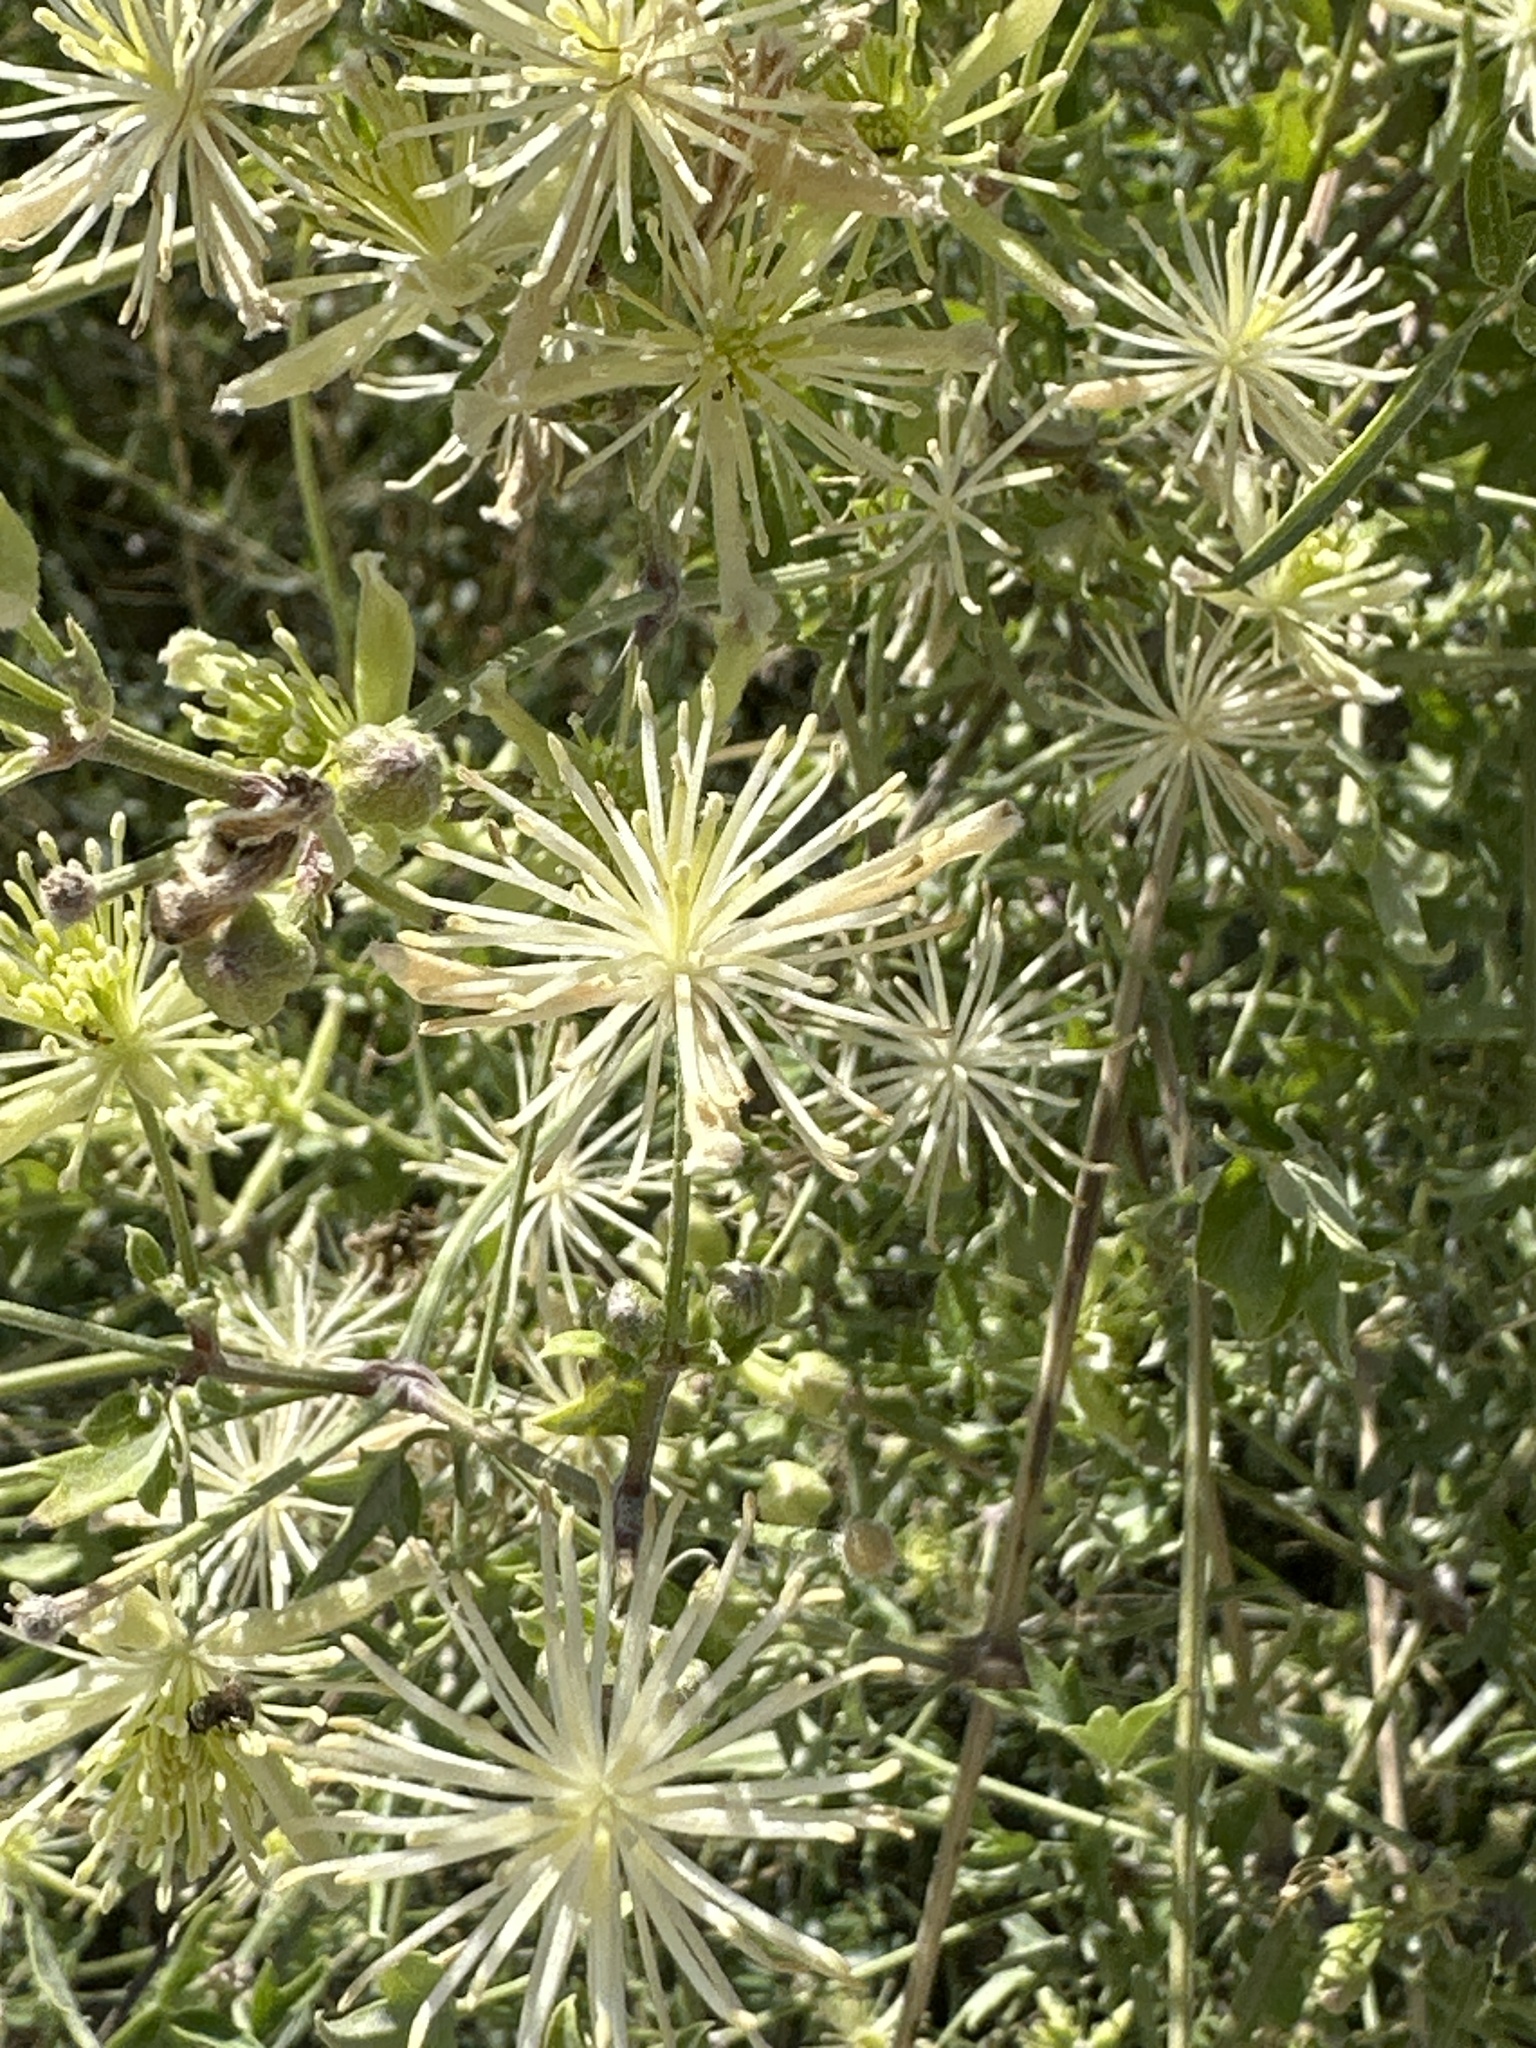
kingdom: Plantae
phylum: Tracheophyta
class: Magnoliopsida
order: Ranunculales
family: Ranunculaceae
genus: Clematis
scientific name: Clematis drummondii
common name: Texas virgin's bower
